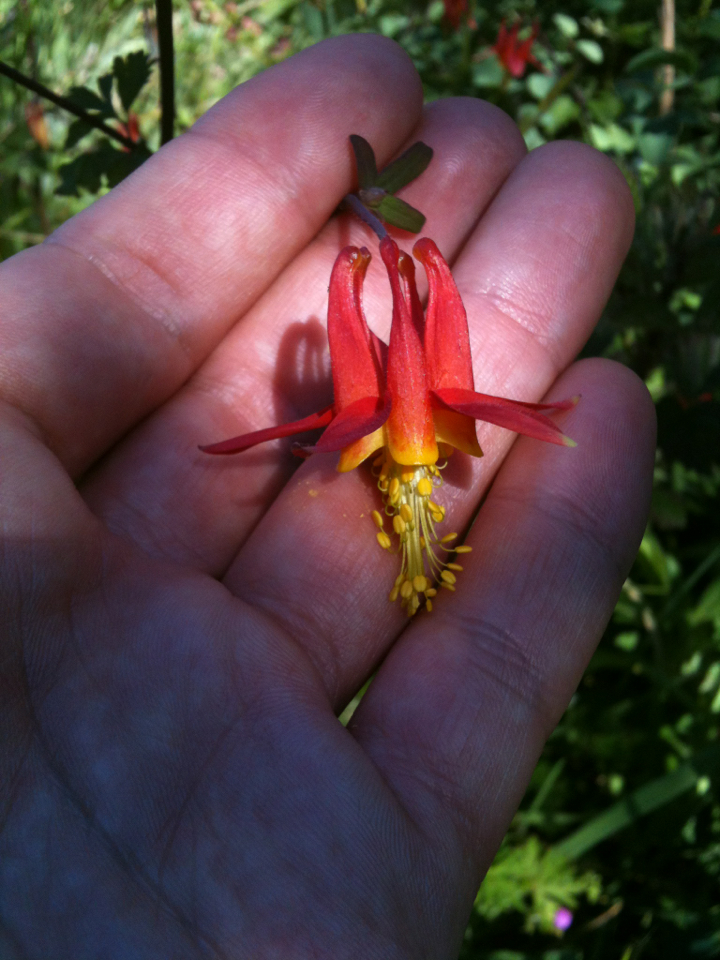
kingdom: Plantae
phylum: Tracheophyta
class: Magnoliopsida
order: Ranunculales
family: Ranunculaceae
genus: Aquilegia
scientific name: Aquilegia formosa
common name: Sitka columbine
